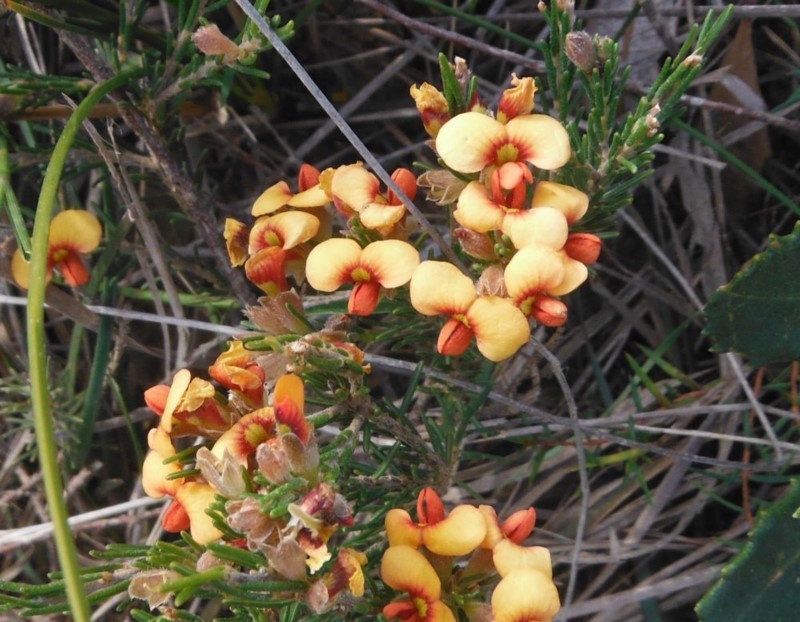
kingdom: Plantae
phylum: Tracheophyta
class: Magnoliopsida
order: Fabales
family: Fabaceae
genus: Dillwynia
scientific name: Dillwynia sericea
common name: Showy parrot-pea
